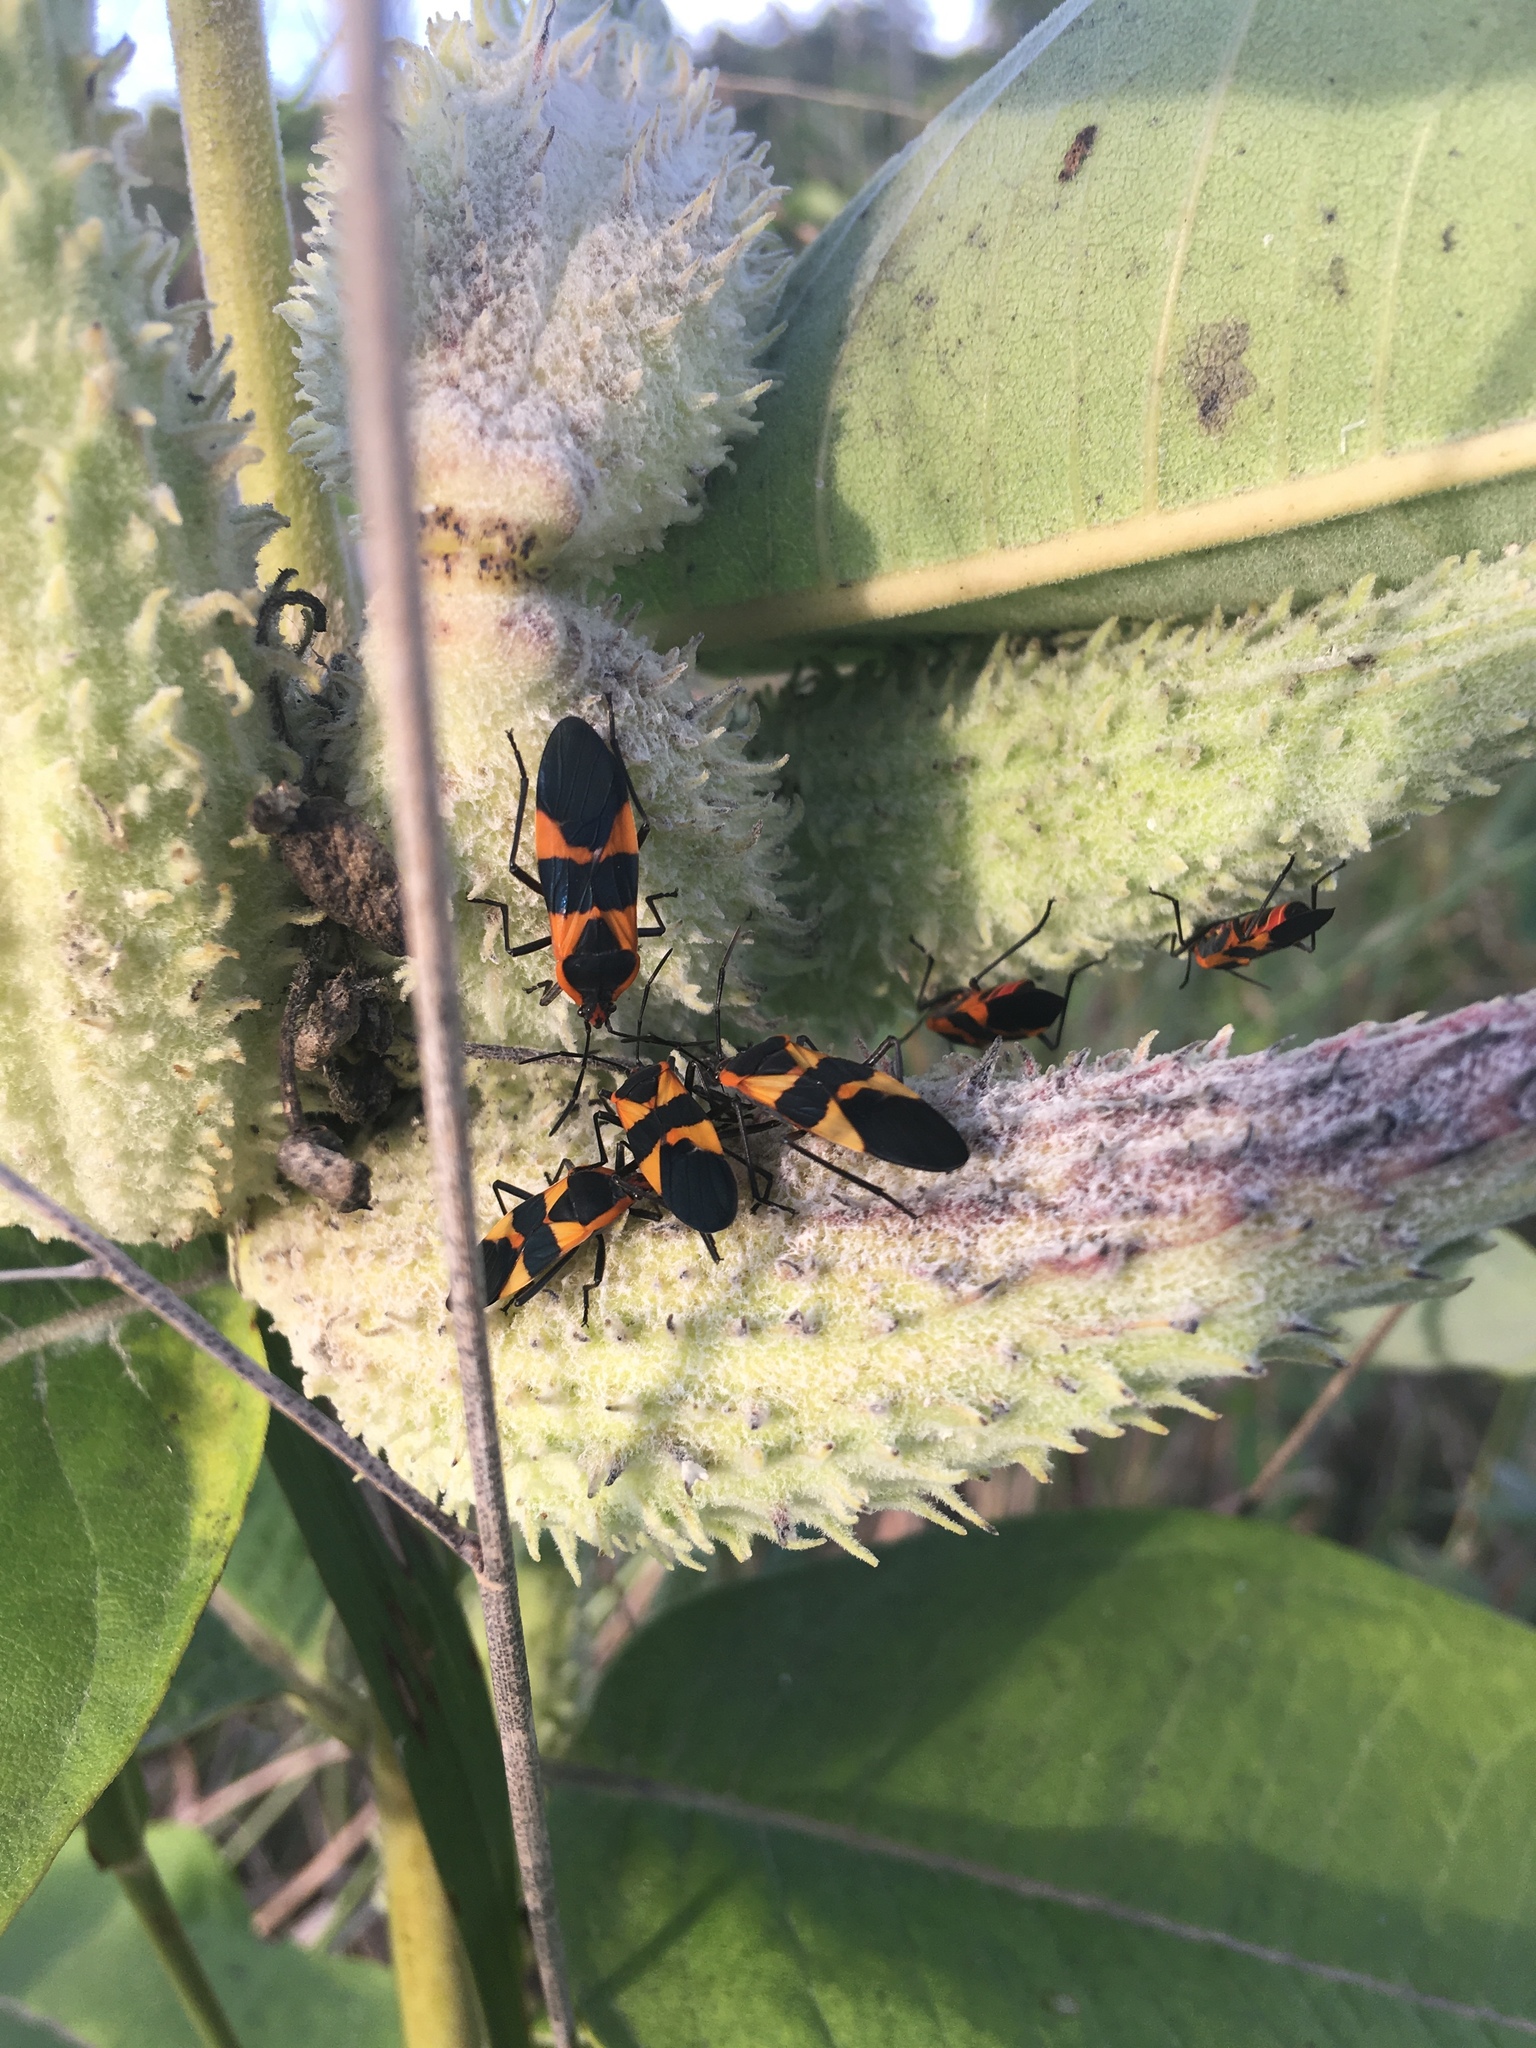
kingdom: Animalia
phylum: Arthropoda
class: Insecta
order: Hemiptera
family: Lygaeidae
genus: Oncopeltus
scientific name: Oncopeltus fasciatus
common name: Large milkweed bug
